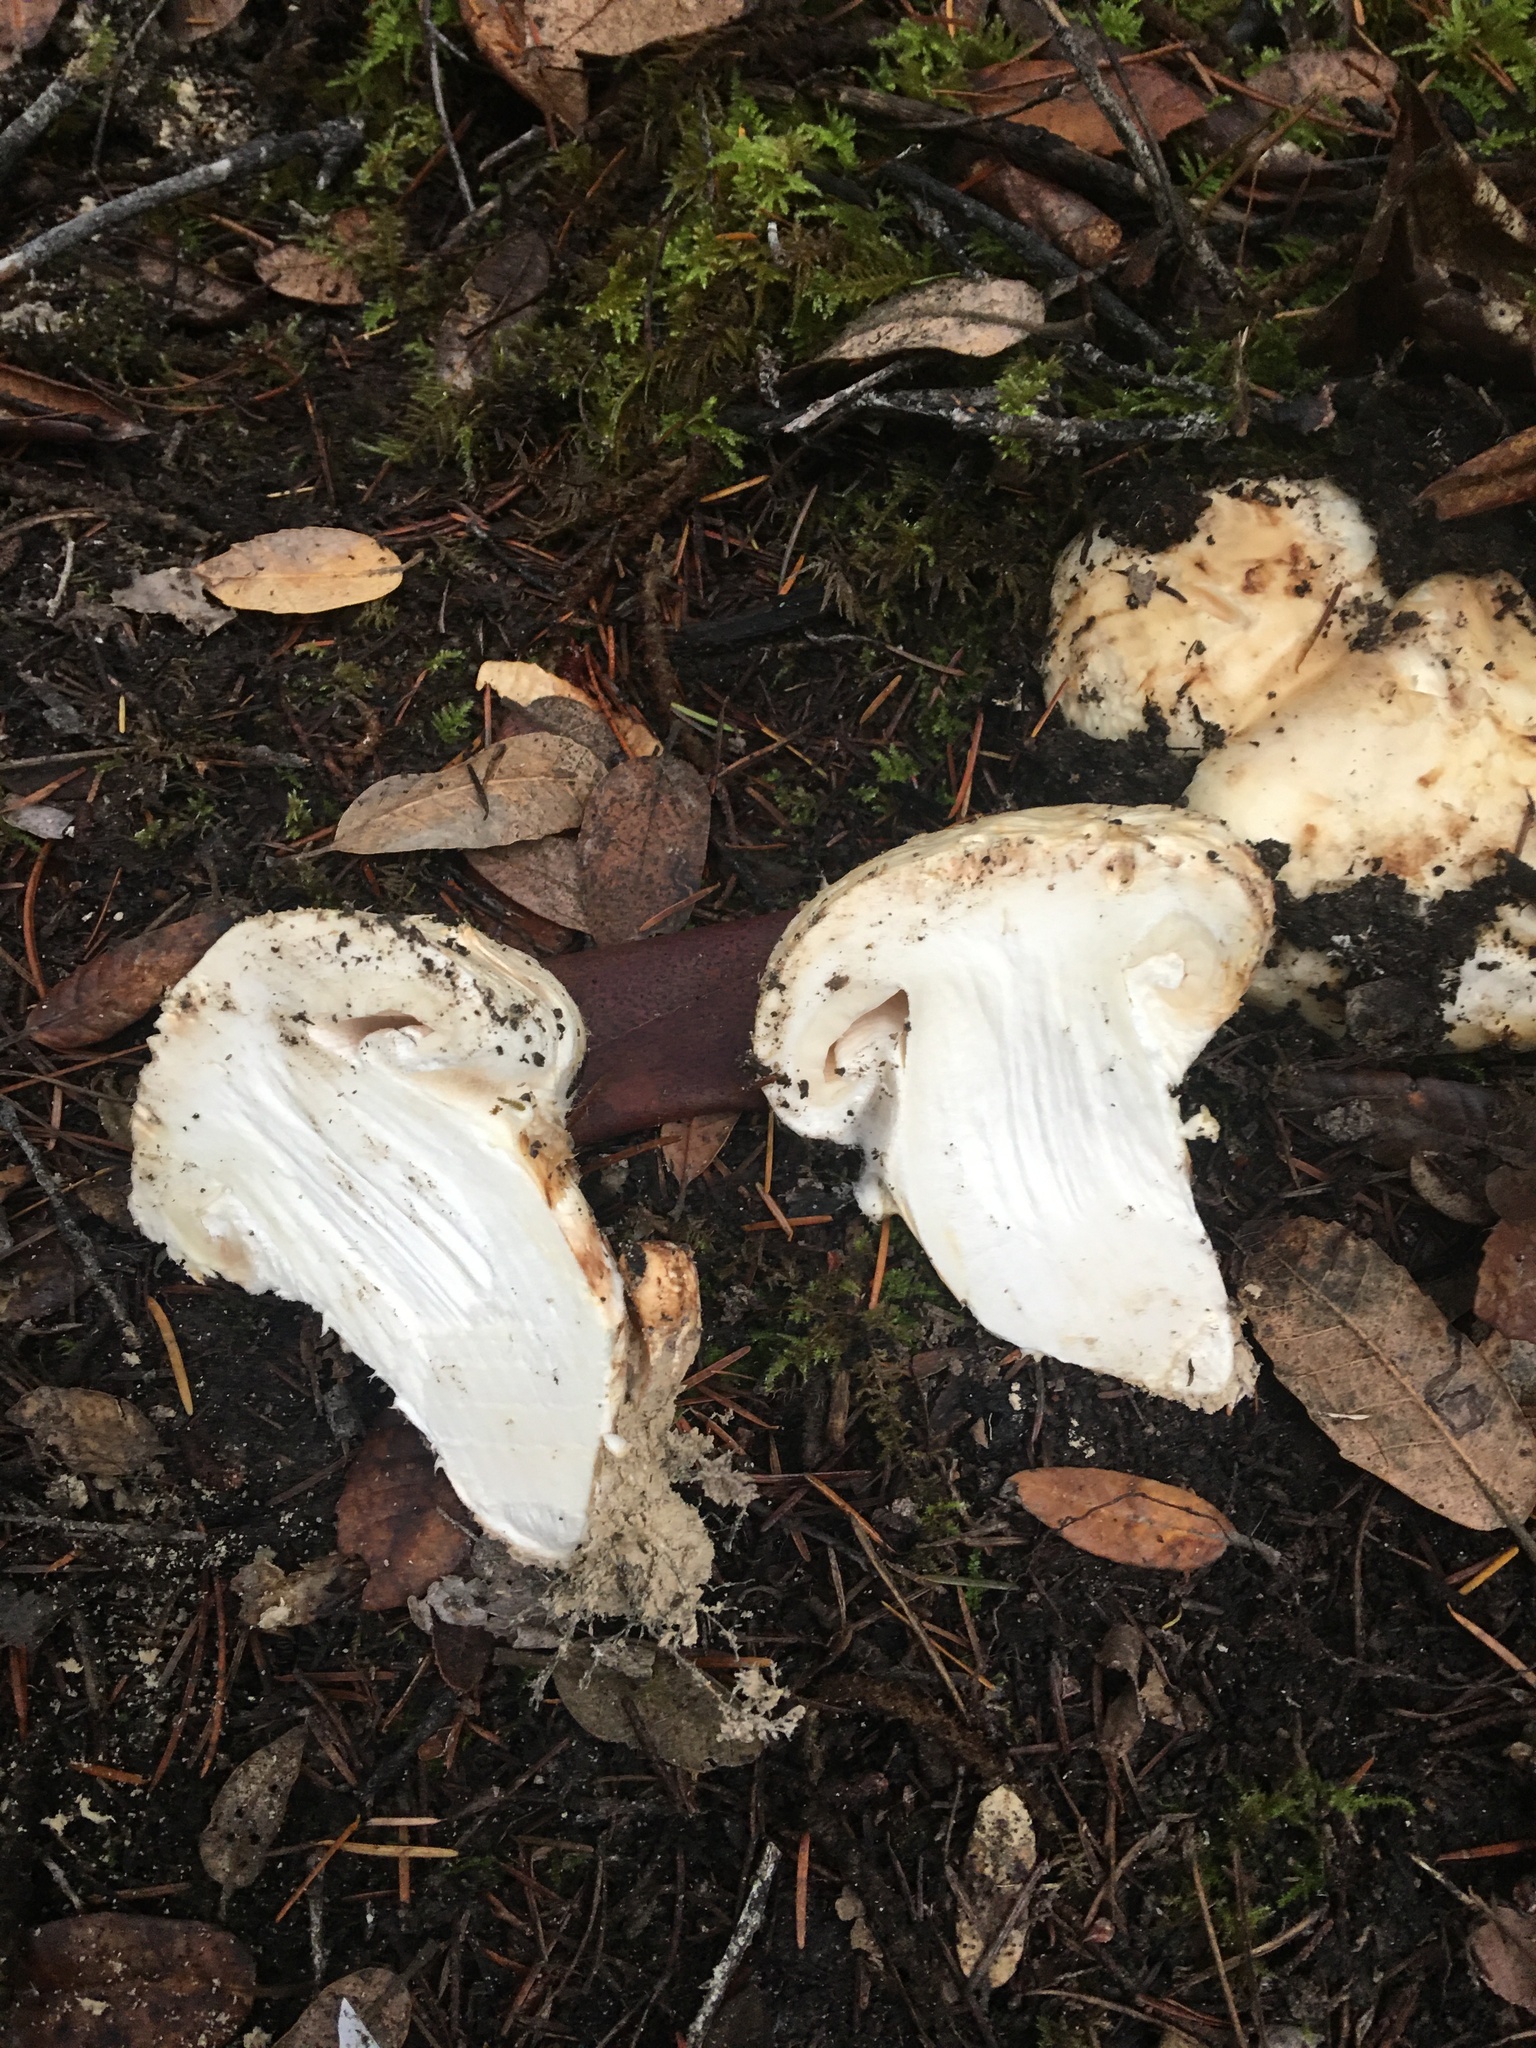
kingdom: Fungi
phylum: Basidiomycota
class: Agaricomycetes
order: Agaricales
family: Tricholomataceae
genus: Tricholoma
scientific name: Tricholoma murrillianum
